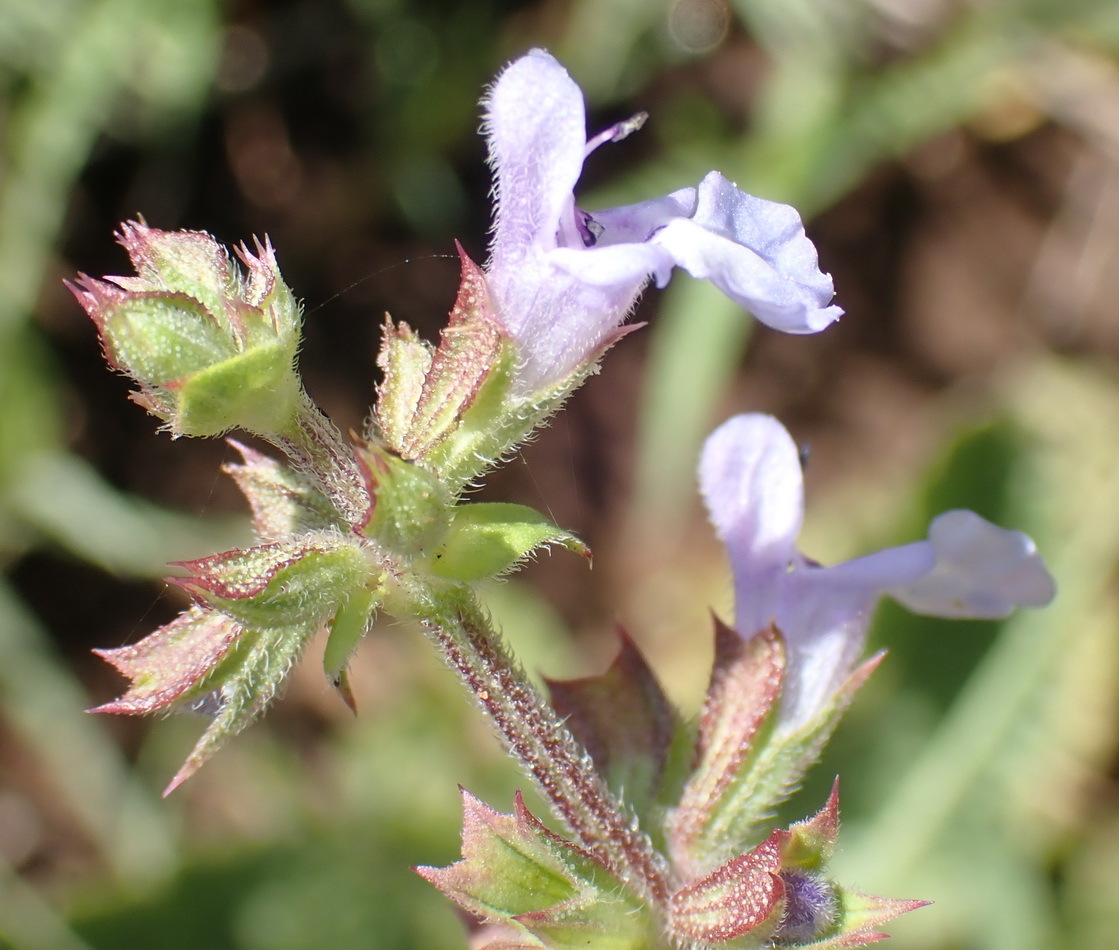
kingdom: Plantae
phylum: Tracheophyta
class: Magnoliopsida
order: Lamiales
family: Lamiaceae
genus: Salvia
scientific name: Salvia runcinata
